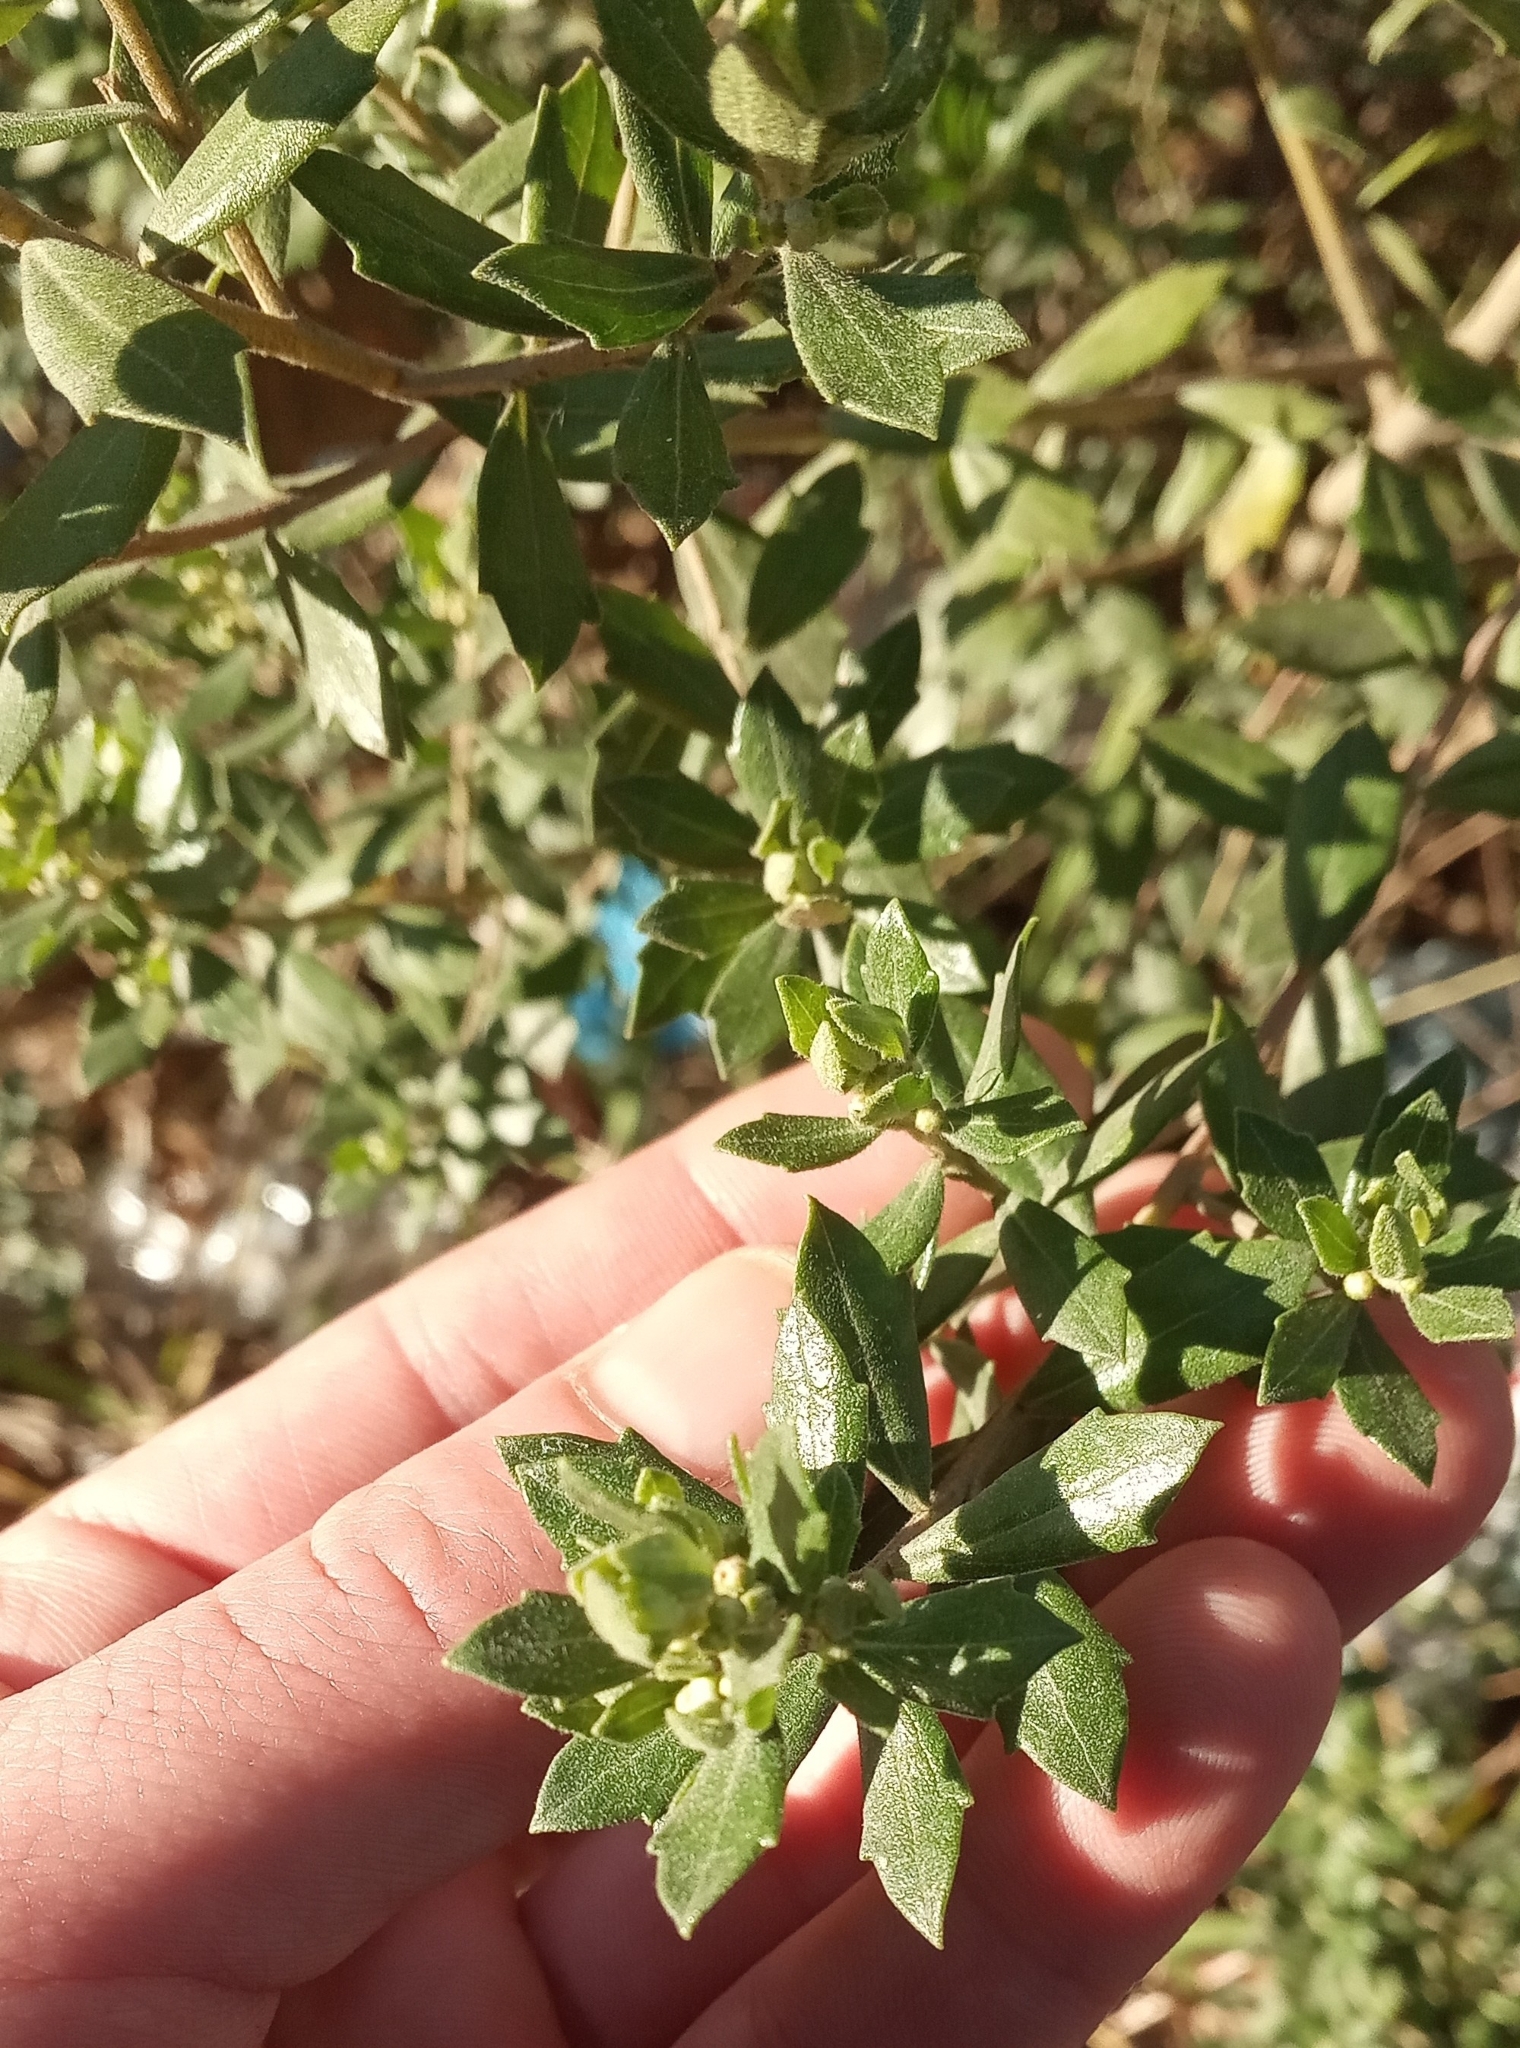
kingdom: Plantae
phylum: Tracheophyta
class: Magnoliopsida
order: Asterales
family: Asteraceae
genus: Baccharis
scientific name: Baccharis dracunculifolia
